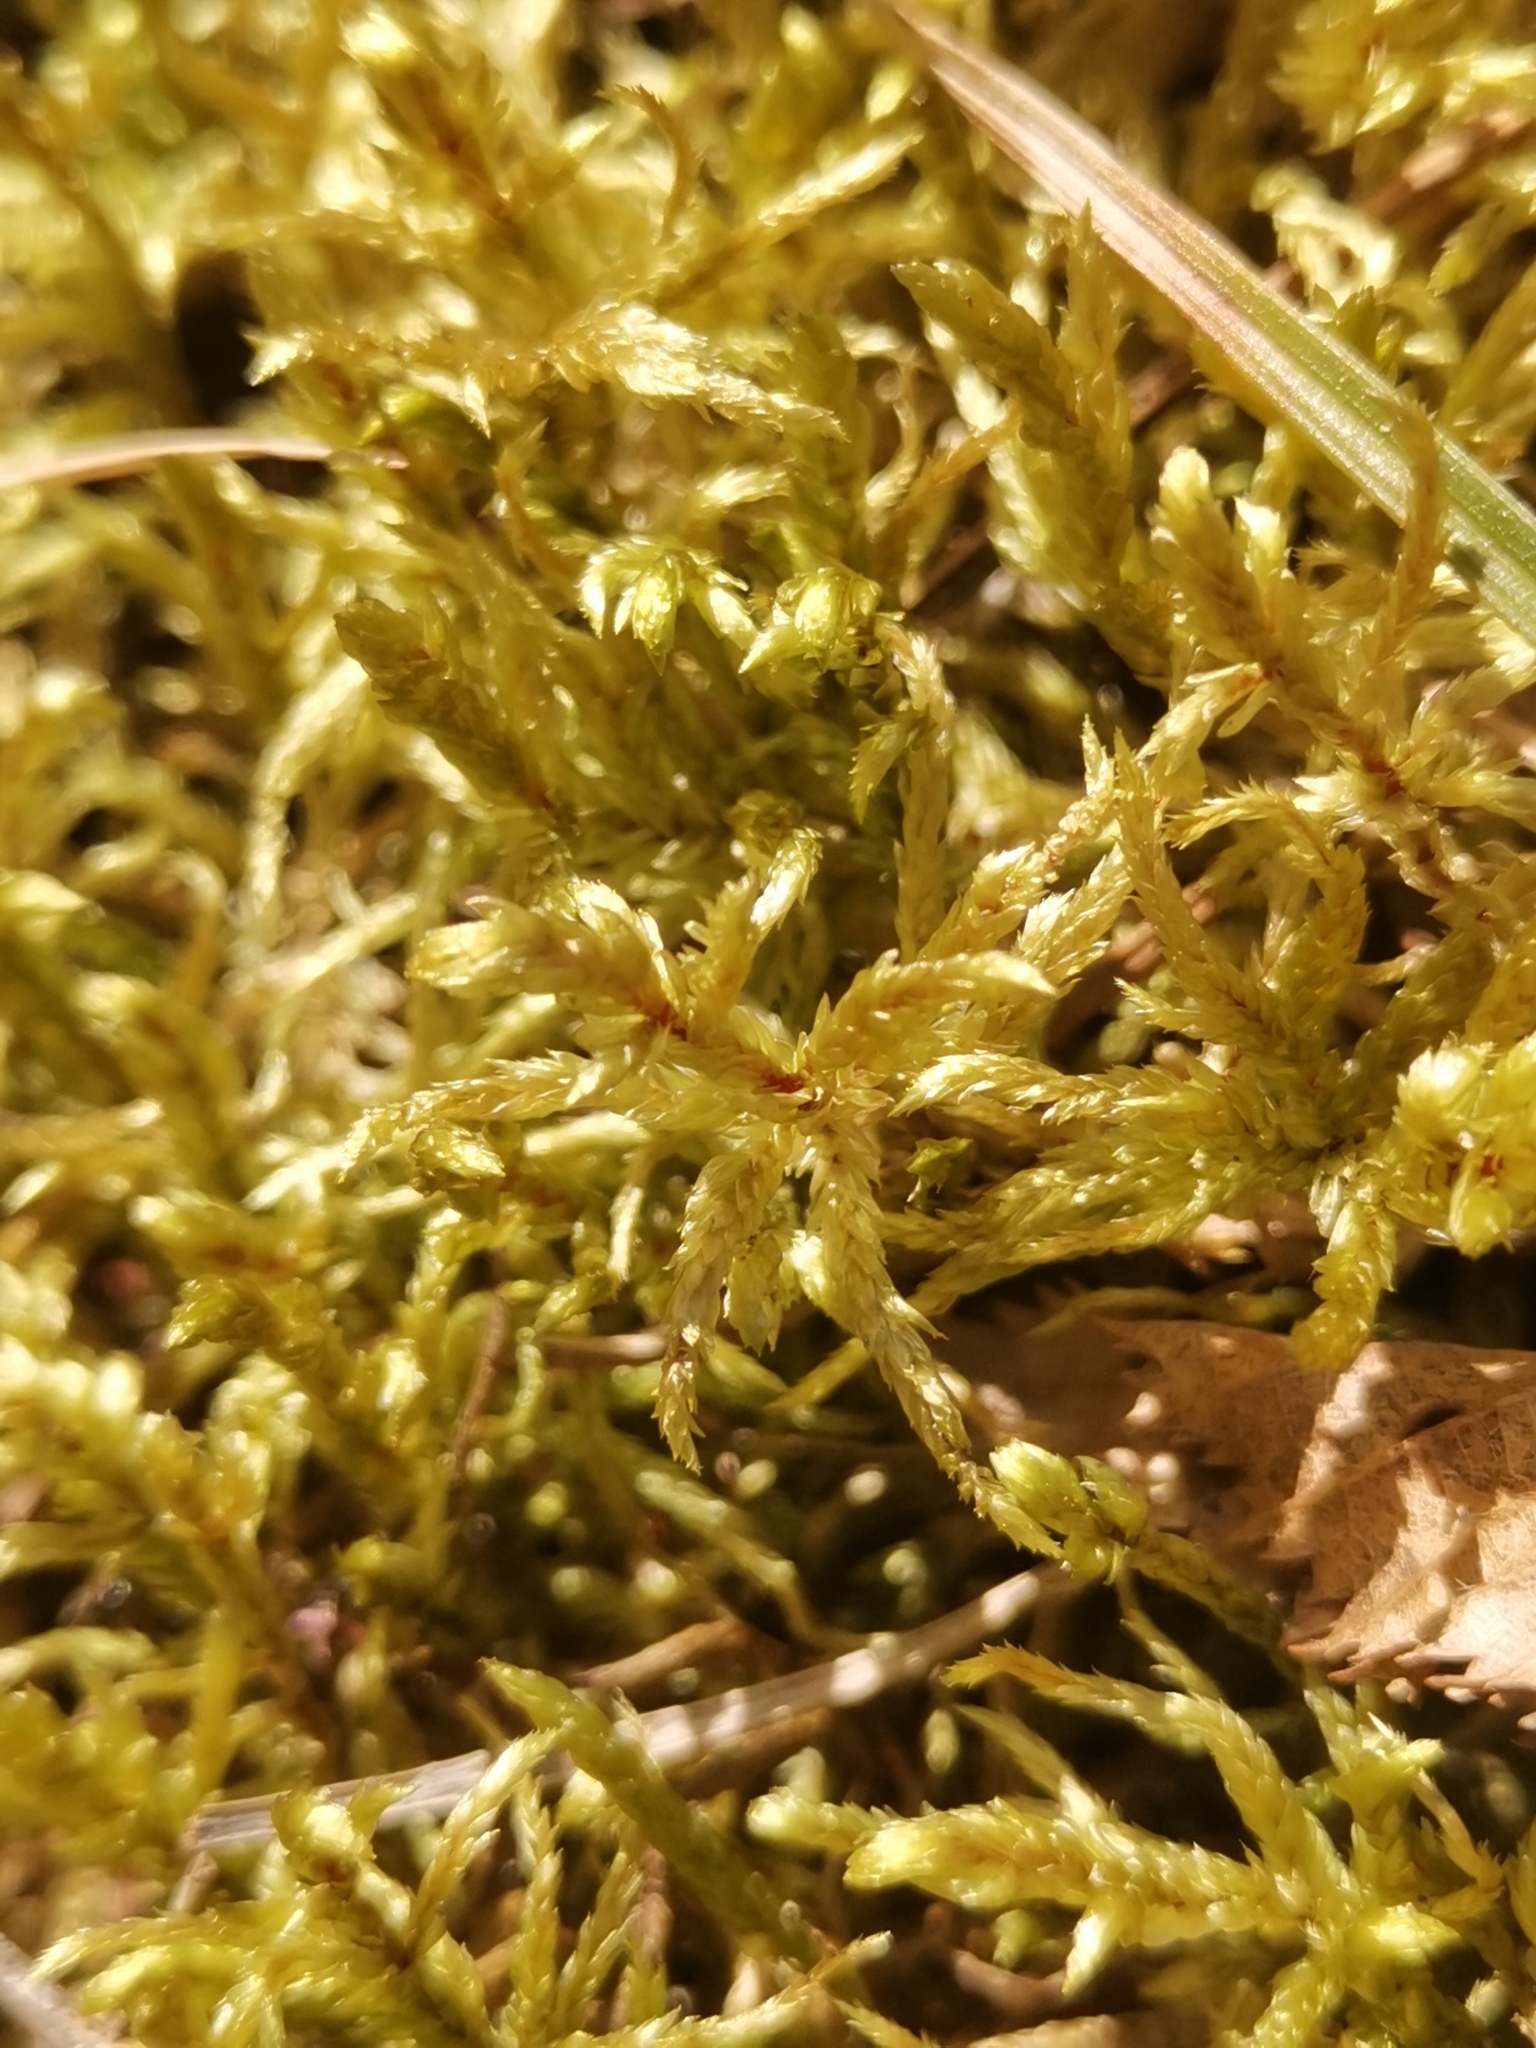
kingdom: Plantae
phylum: Bryophyta
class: Bryopsida
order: Hypnales
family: Hylocomiaceae
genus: Pleurozium
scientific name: Pleurozium schreberi
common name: Red-stemmed feather moss
